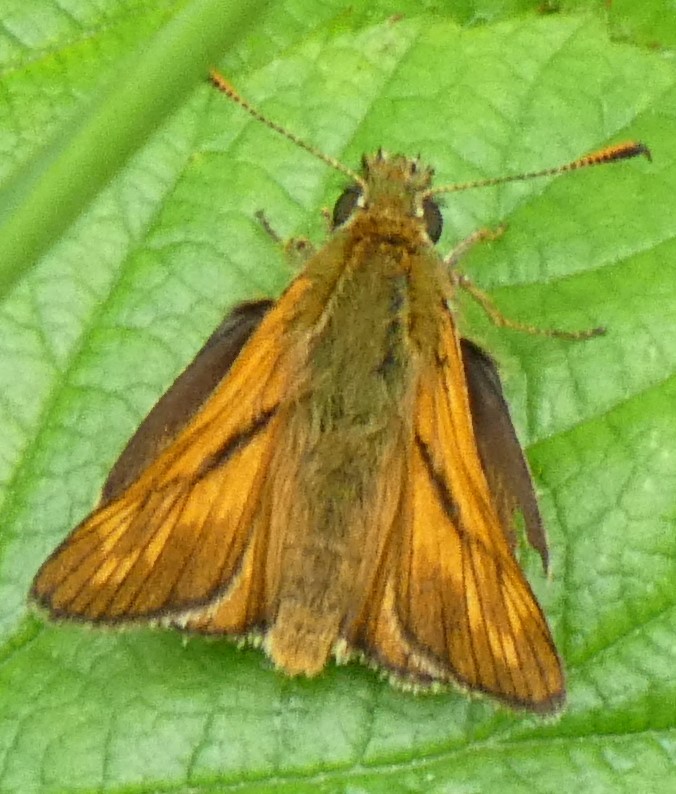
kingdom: Animalia
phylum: Arthropoda
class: Insecta
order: Lepidoptera
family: Hesperiidae
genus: Ochlodes
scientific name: Ochlodes venata
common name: Large skipper
